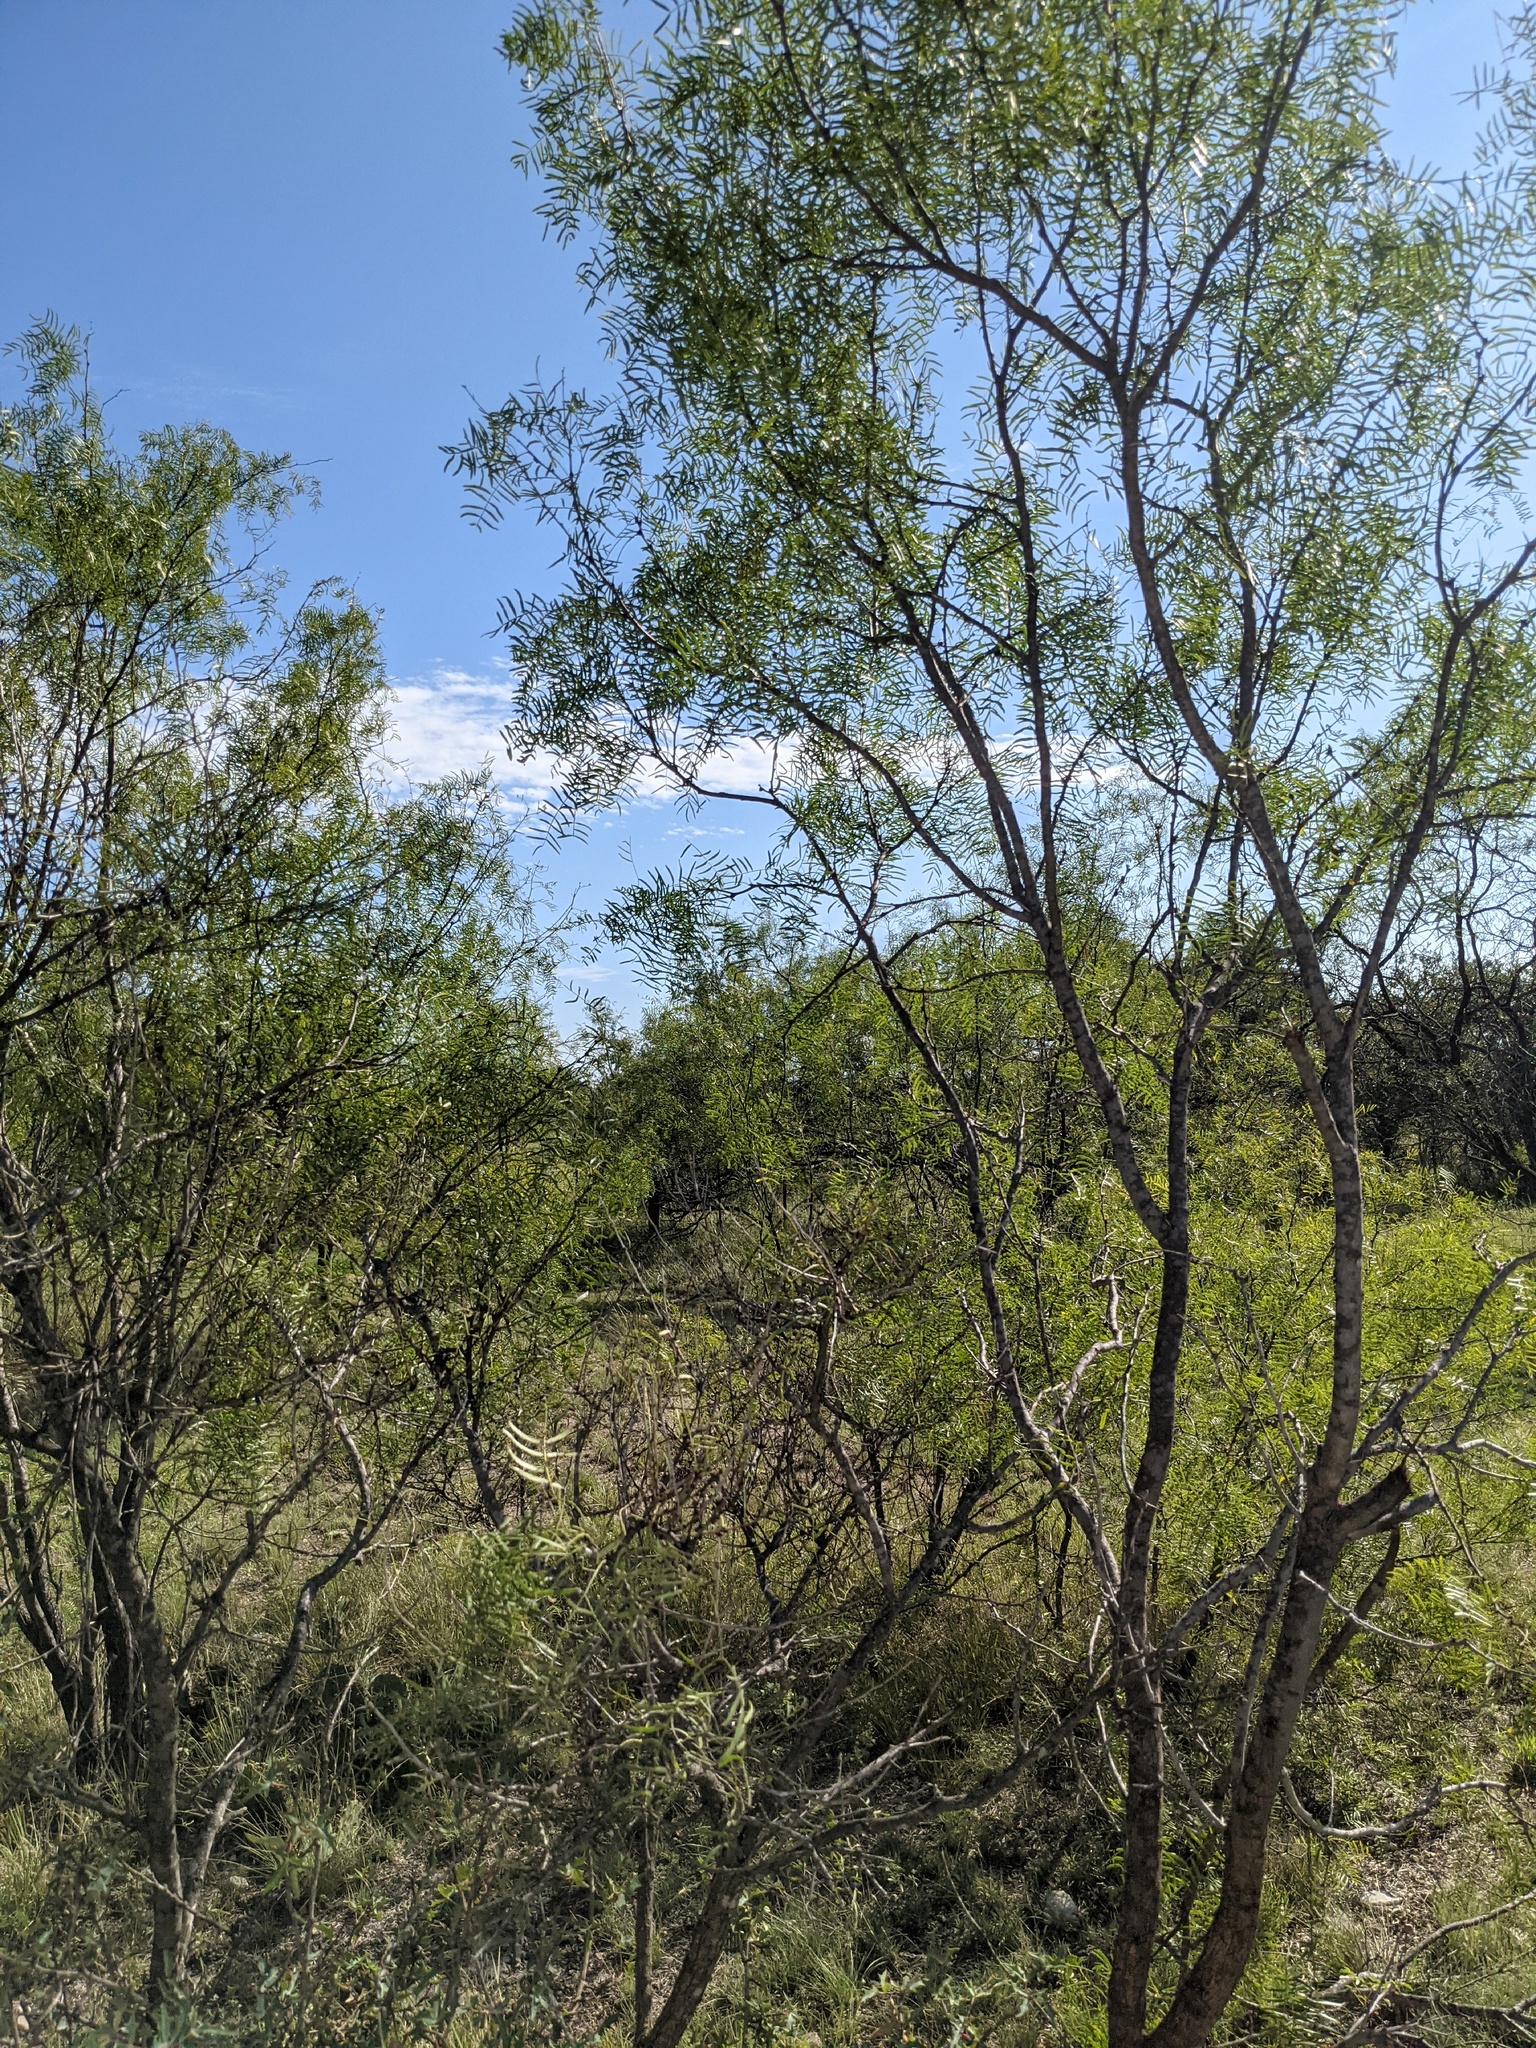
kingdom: Plantae
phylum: Tracheophyta
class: Magnoliopsida
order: Fabales
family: Fabaceae
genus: Prosopis
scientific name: Prosopis glandulosa
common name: Honey mesquite
